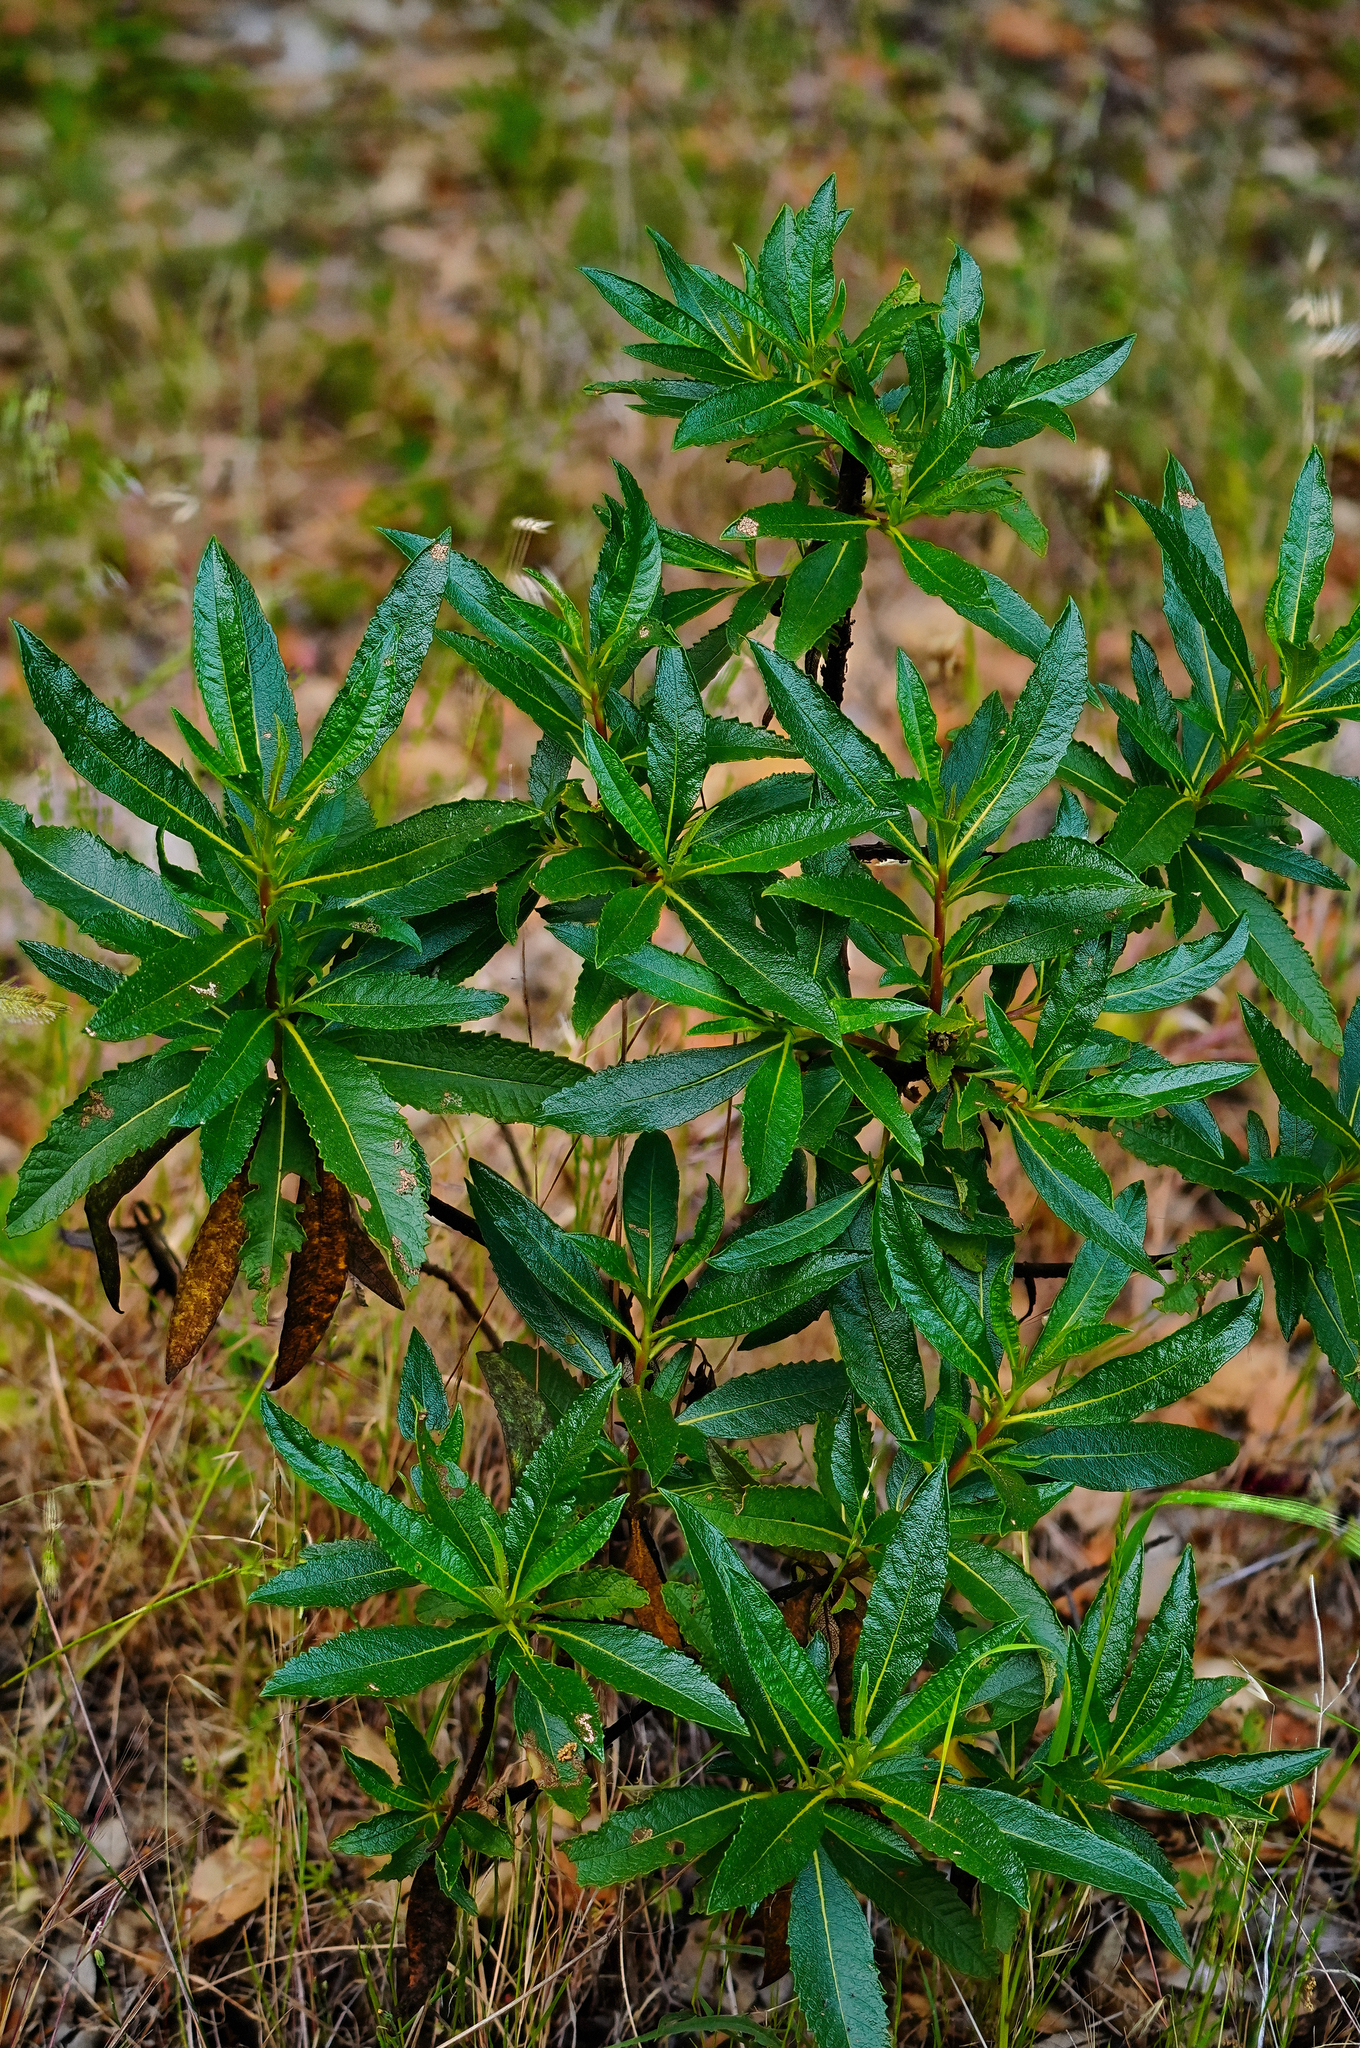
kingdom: Plantae
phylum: Tracheophyta
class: Magnoliopsida
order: Boraginales
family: Namaceae
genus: Eriodictyon
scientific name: Eriodictyon californicum
